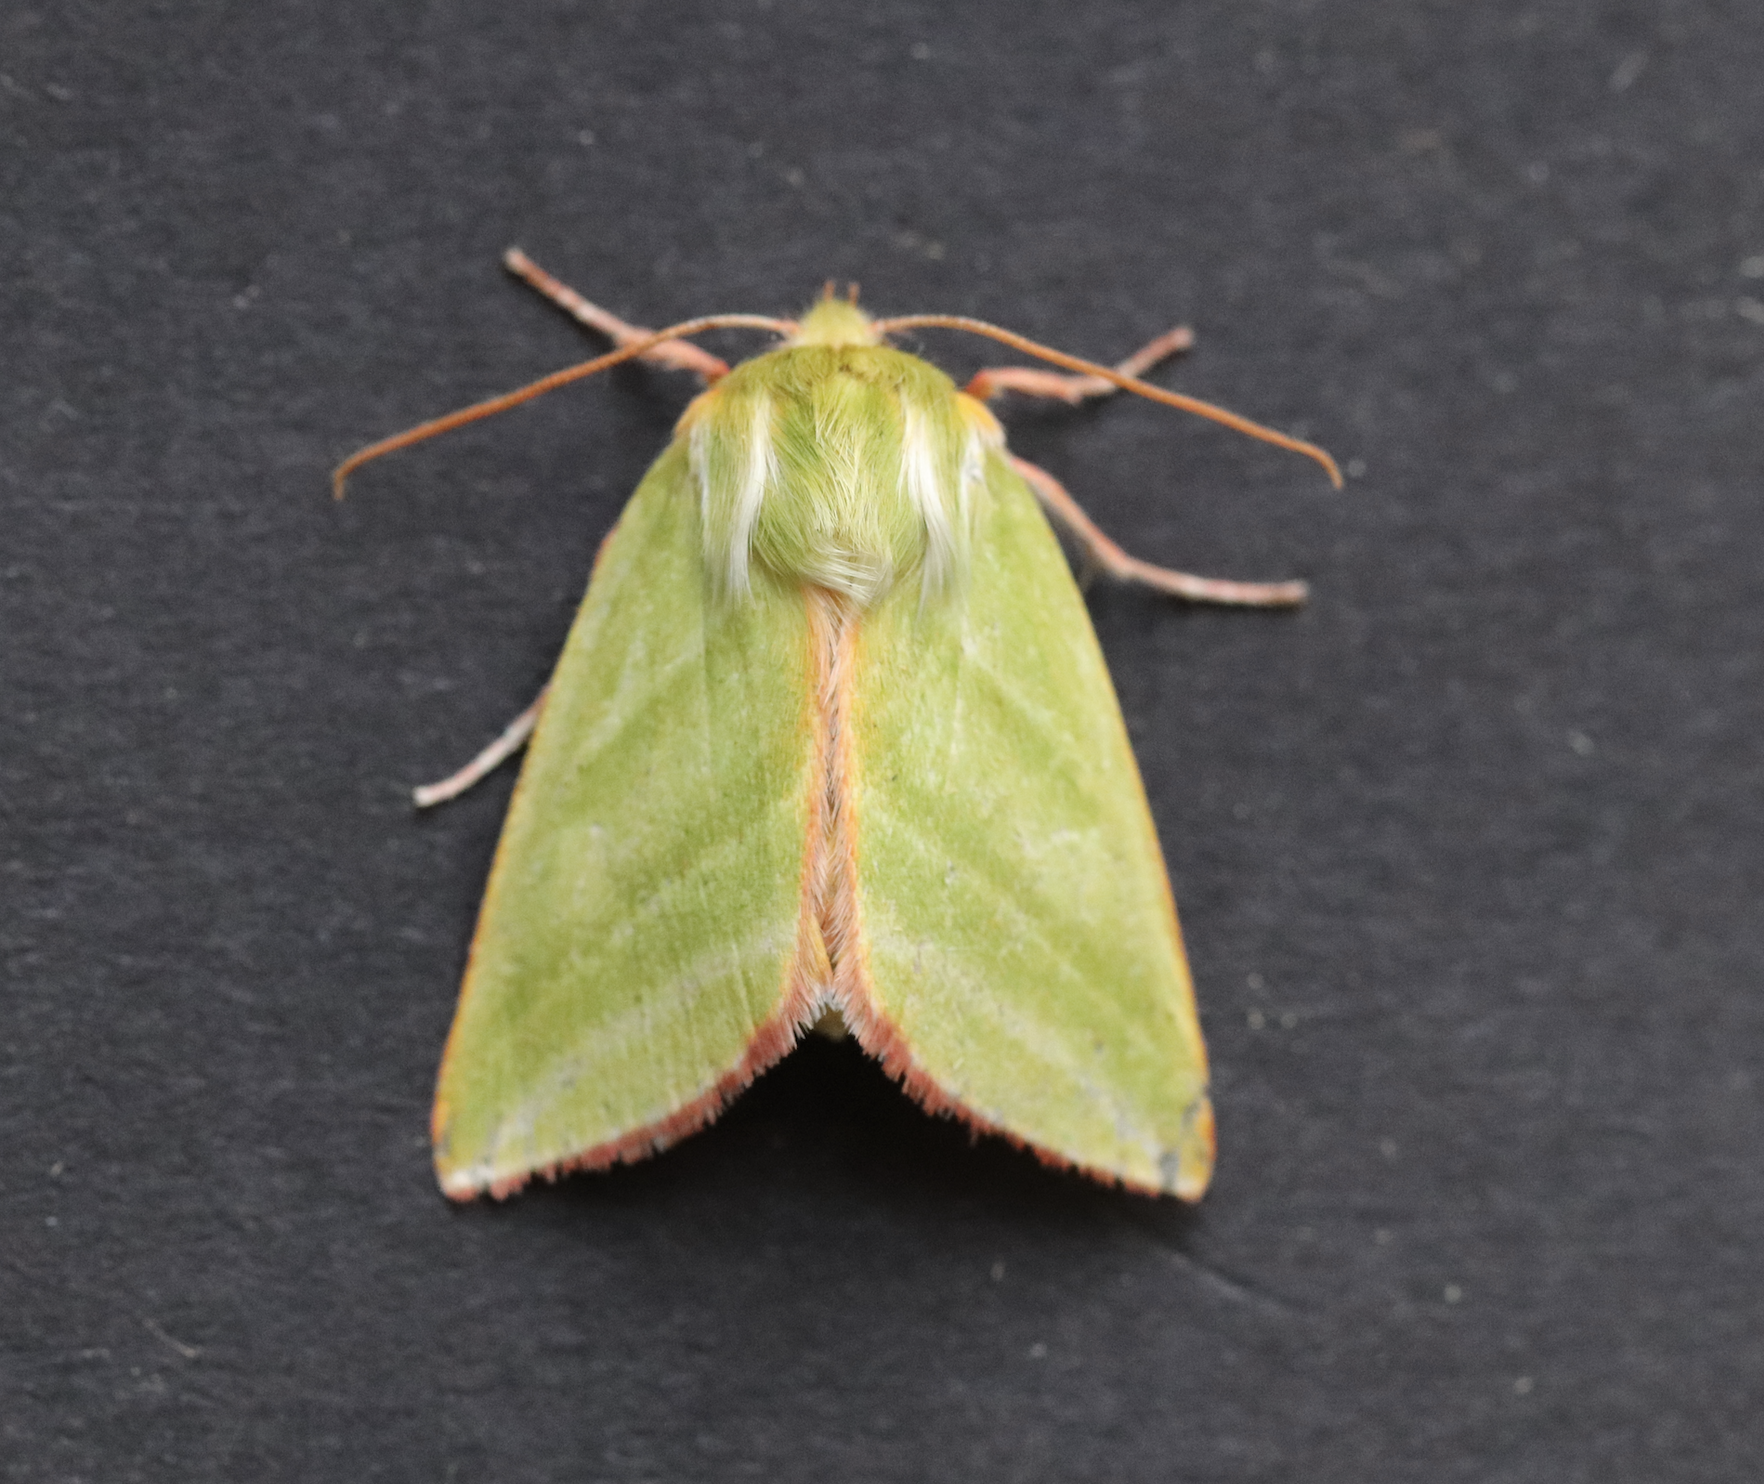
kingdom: Animalia
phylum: Arthropoda
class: Insecta
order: Lepidoptera
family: Nolidae
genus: Pseudoips
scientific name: Pseudoips prasinana
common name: Green silver-lines
